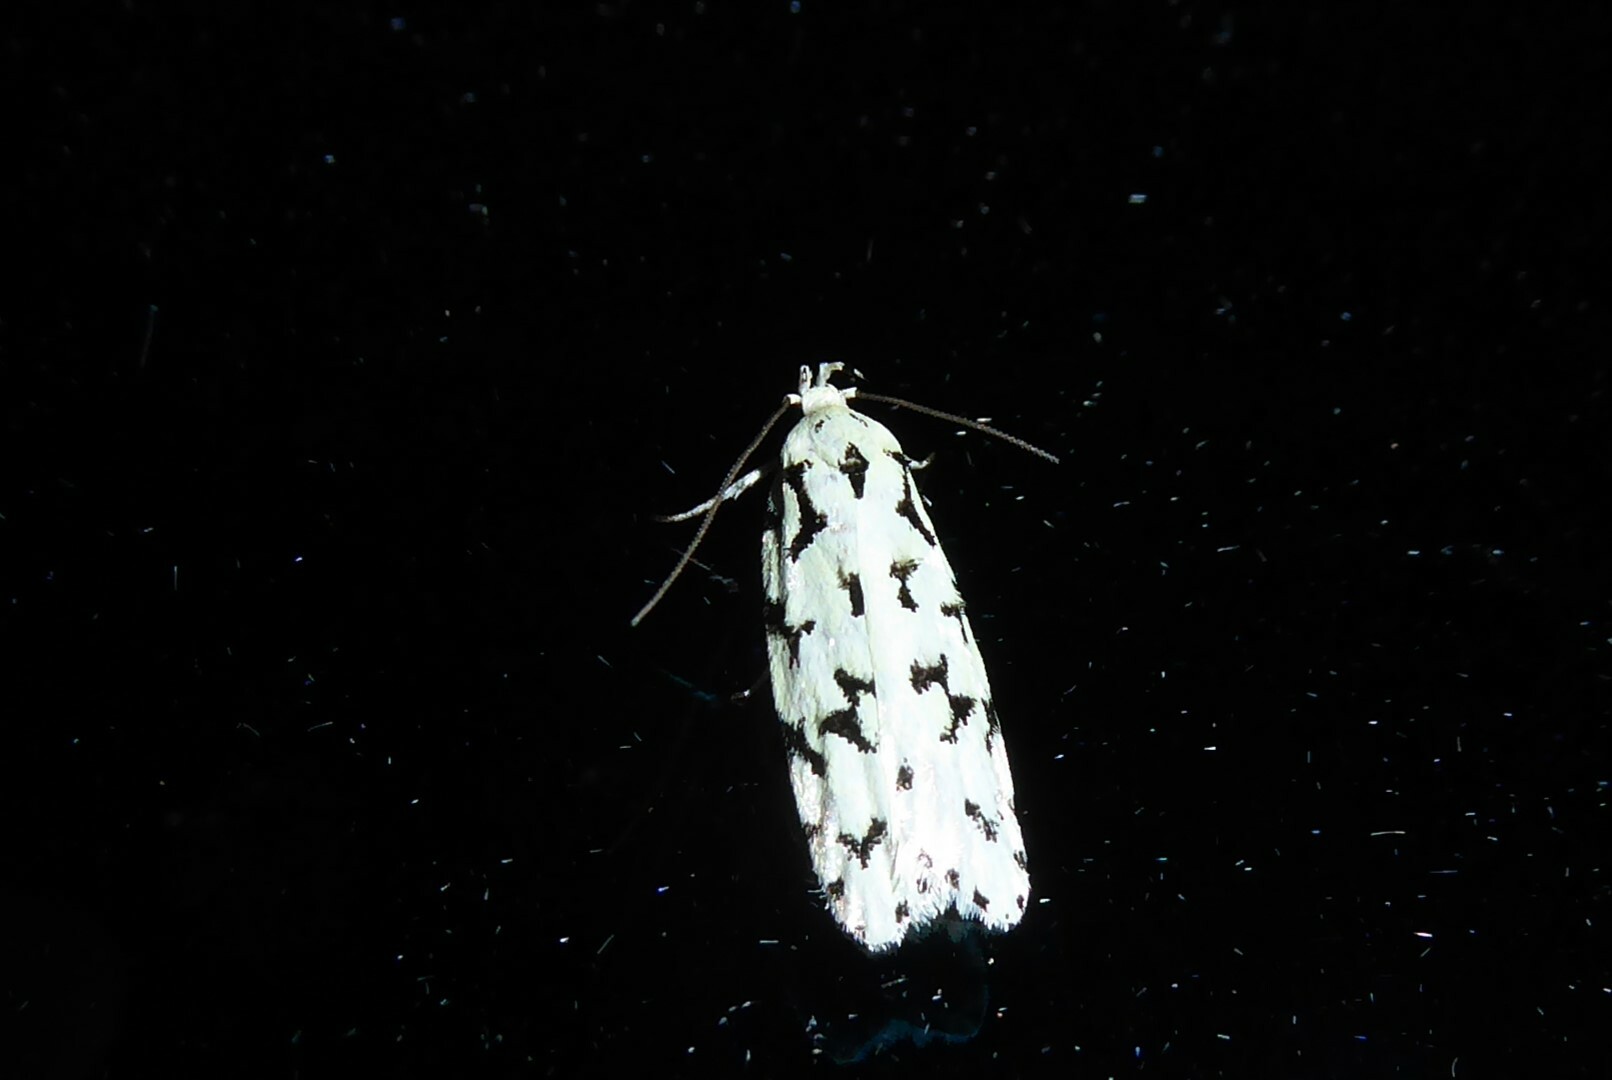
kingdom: Animalia
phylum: Arthropoda
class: Insecta
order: Lepidoptera
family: Oecophoridae
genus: Izatha
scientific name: Izatha huttoni
